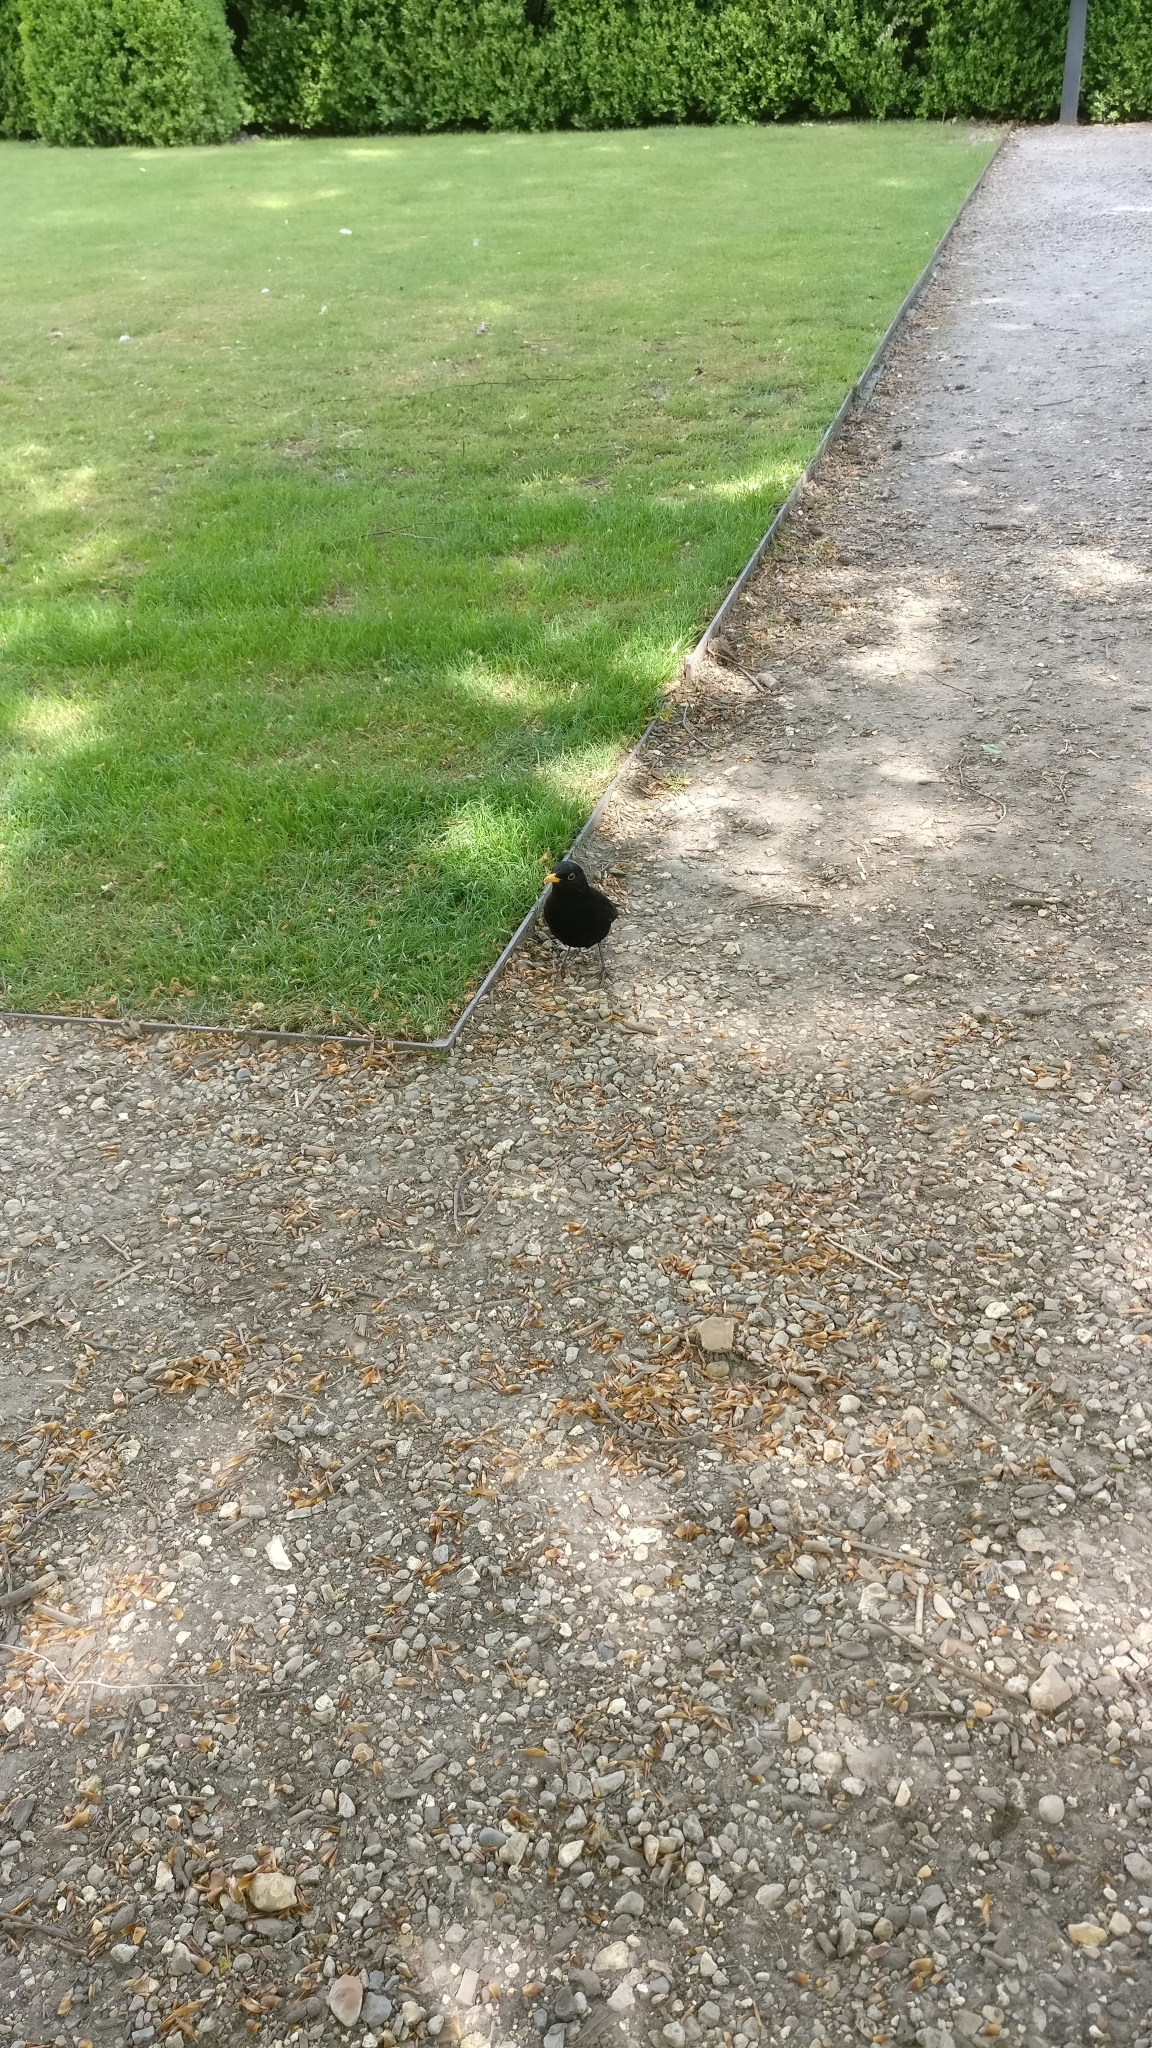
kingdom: Animalia
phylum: Chordata
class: Aves
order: Passeriformes
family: Turdidae
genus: Turdus
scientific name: Turdus merula
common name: Common blackbird
